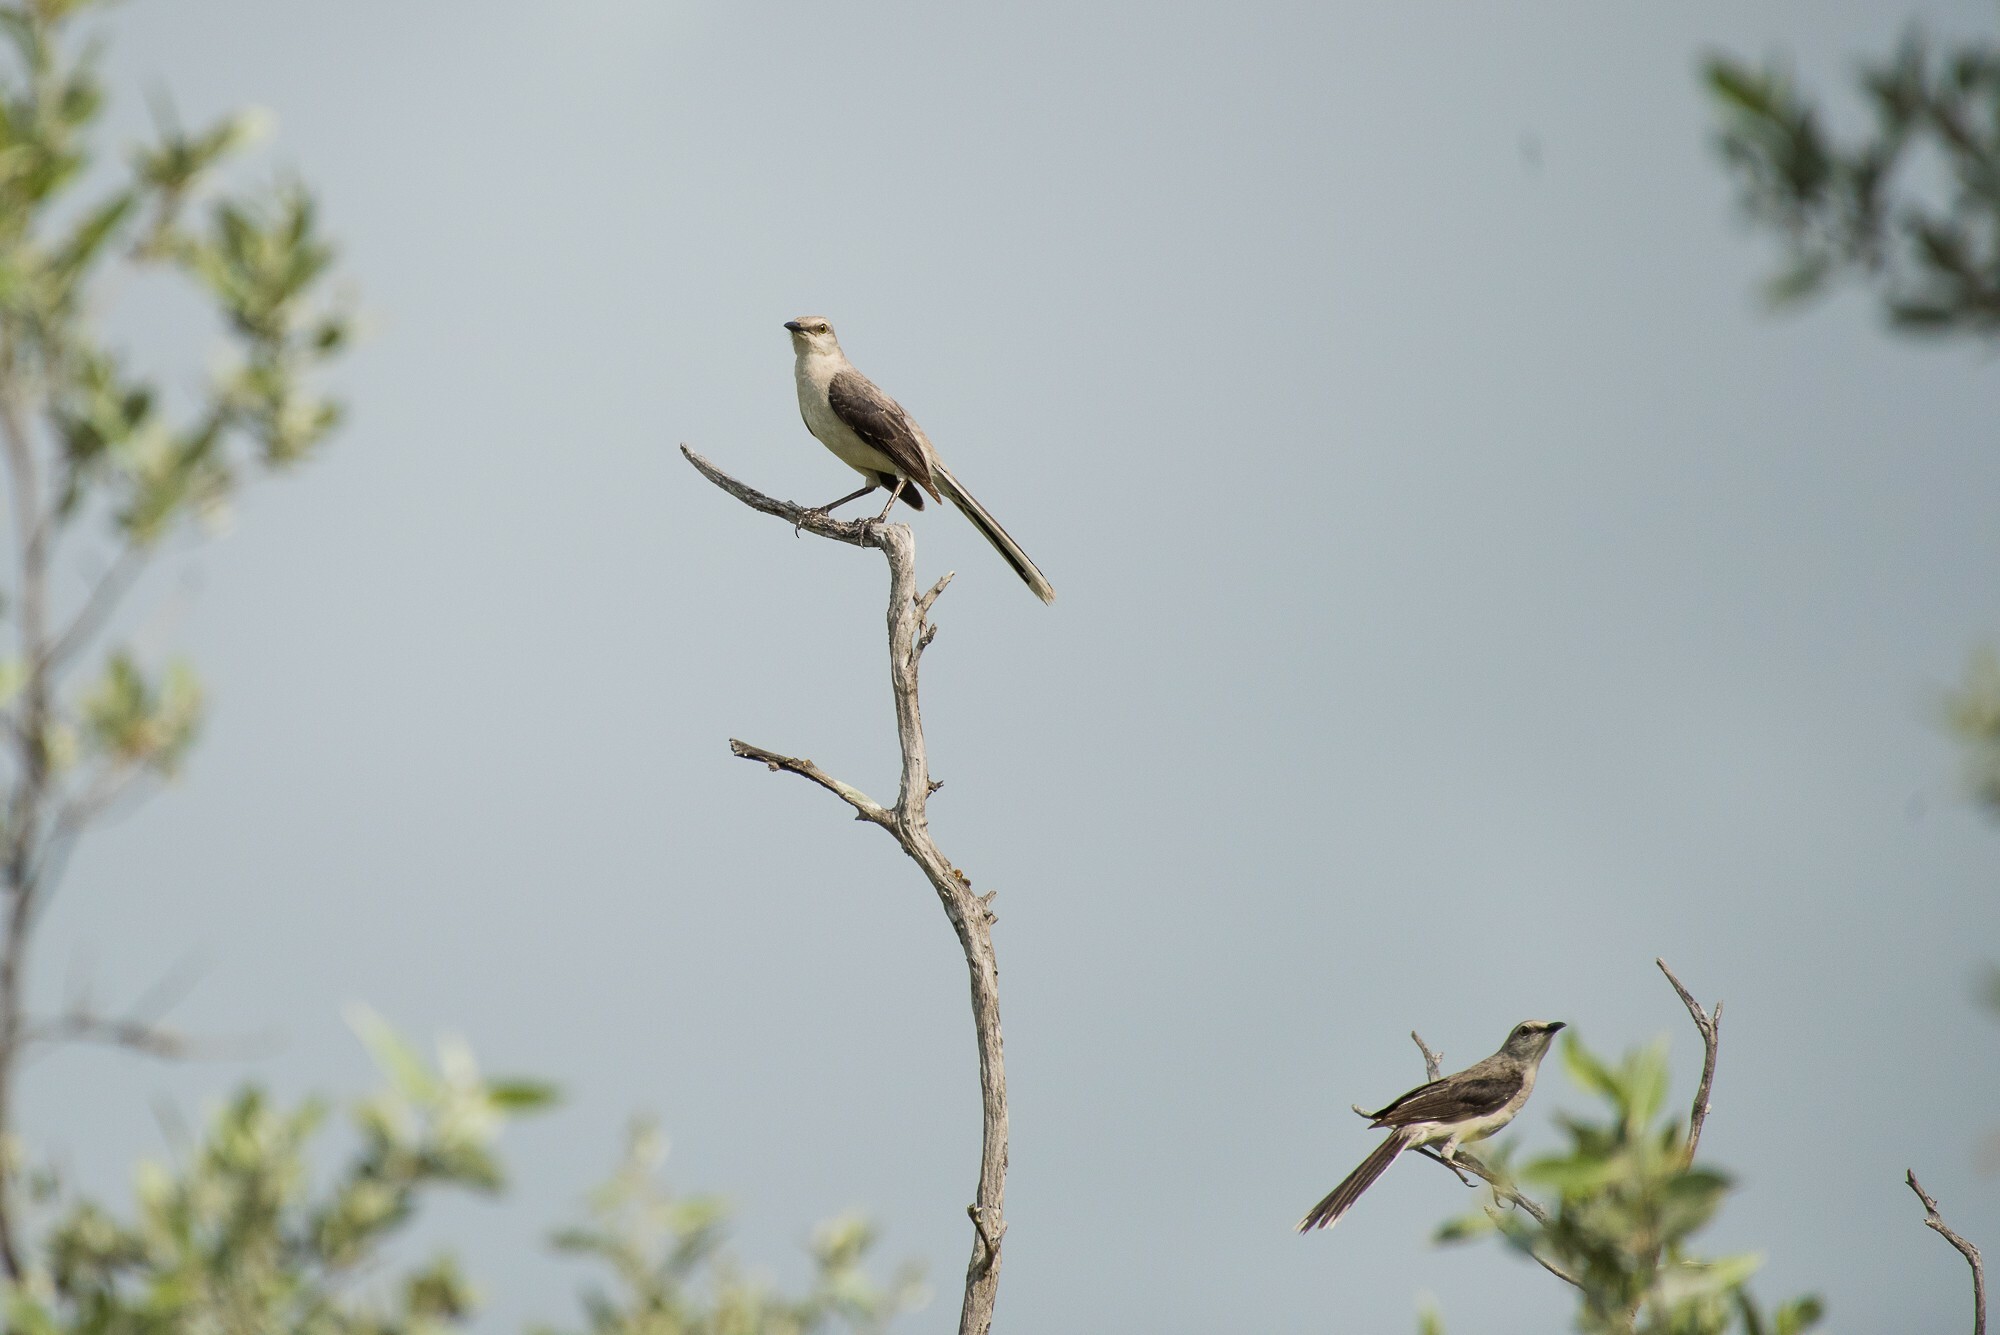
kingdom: Animalia
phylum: Chordata
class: Aves
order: Passeriformes
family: Mimidae
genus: Mimus
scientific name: Mimus gilvus
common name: Tropical mockingbird
